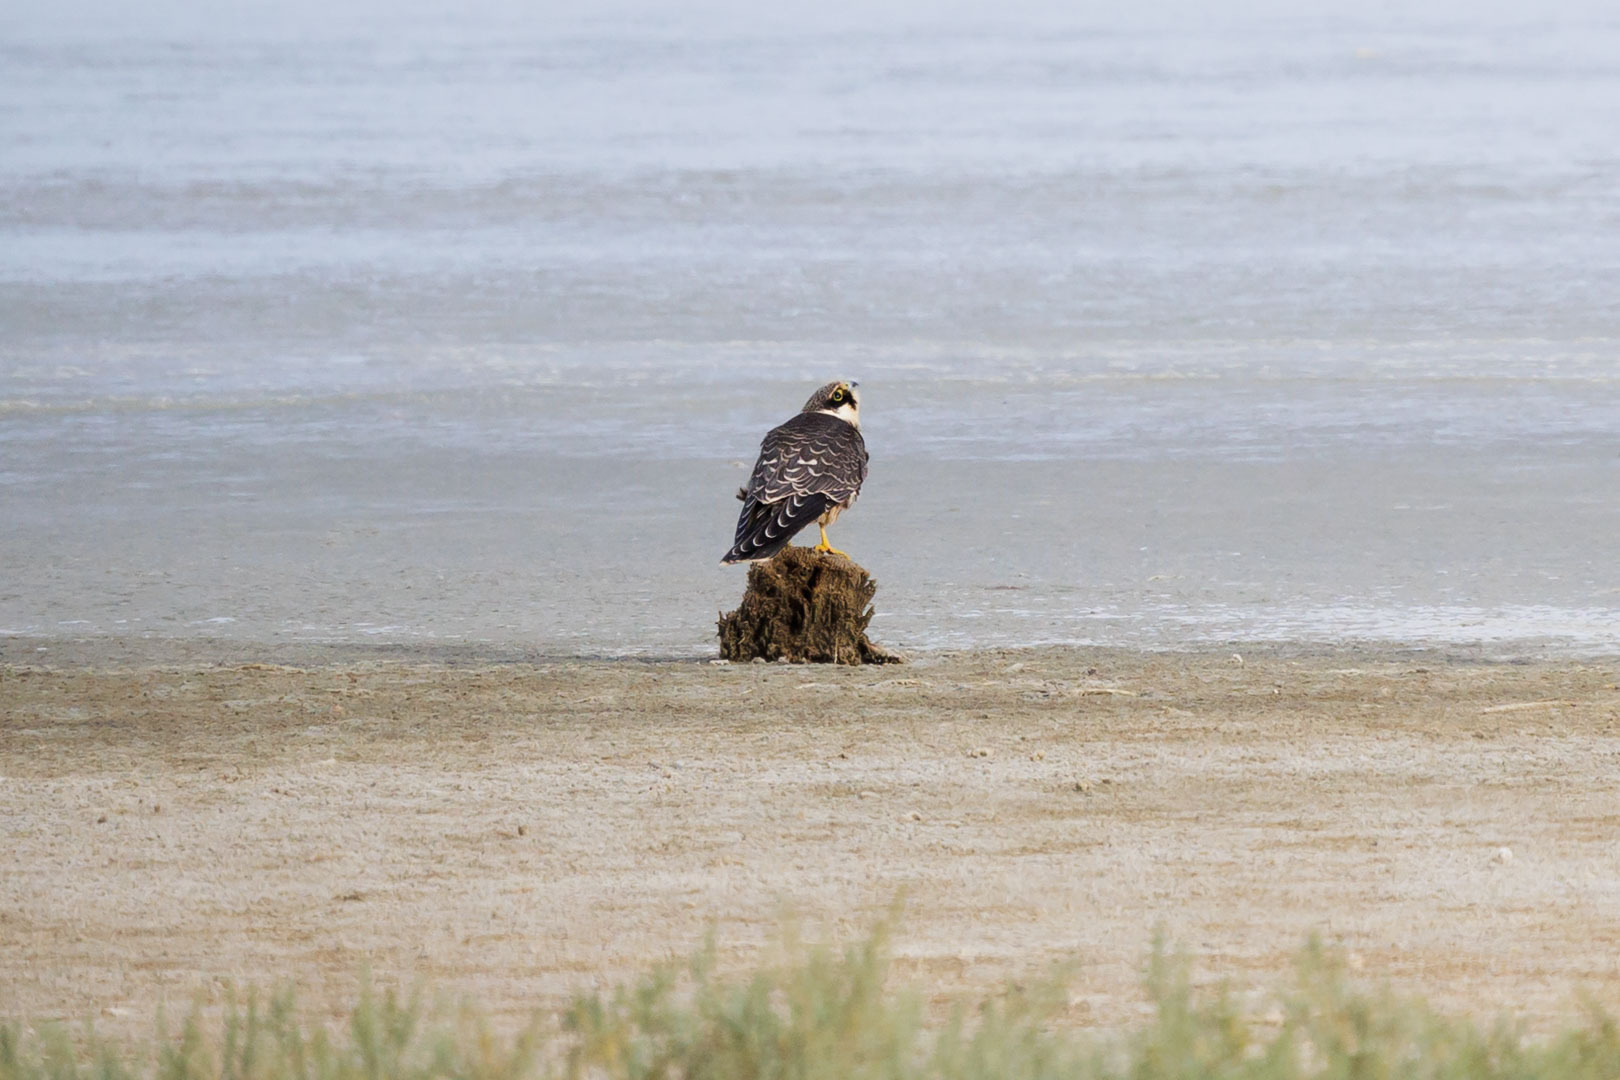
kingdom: Animalia
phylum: Chordata
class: Aves
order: Falconiformes
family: Falconidae
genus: Falco
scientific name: Falco subbuteo
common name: Eurasian hobby
